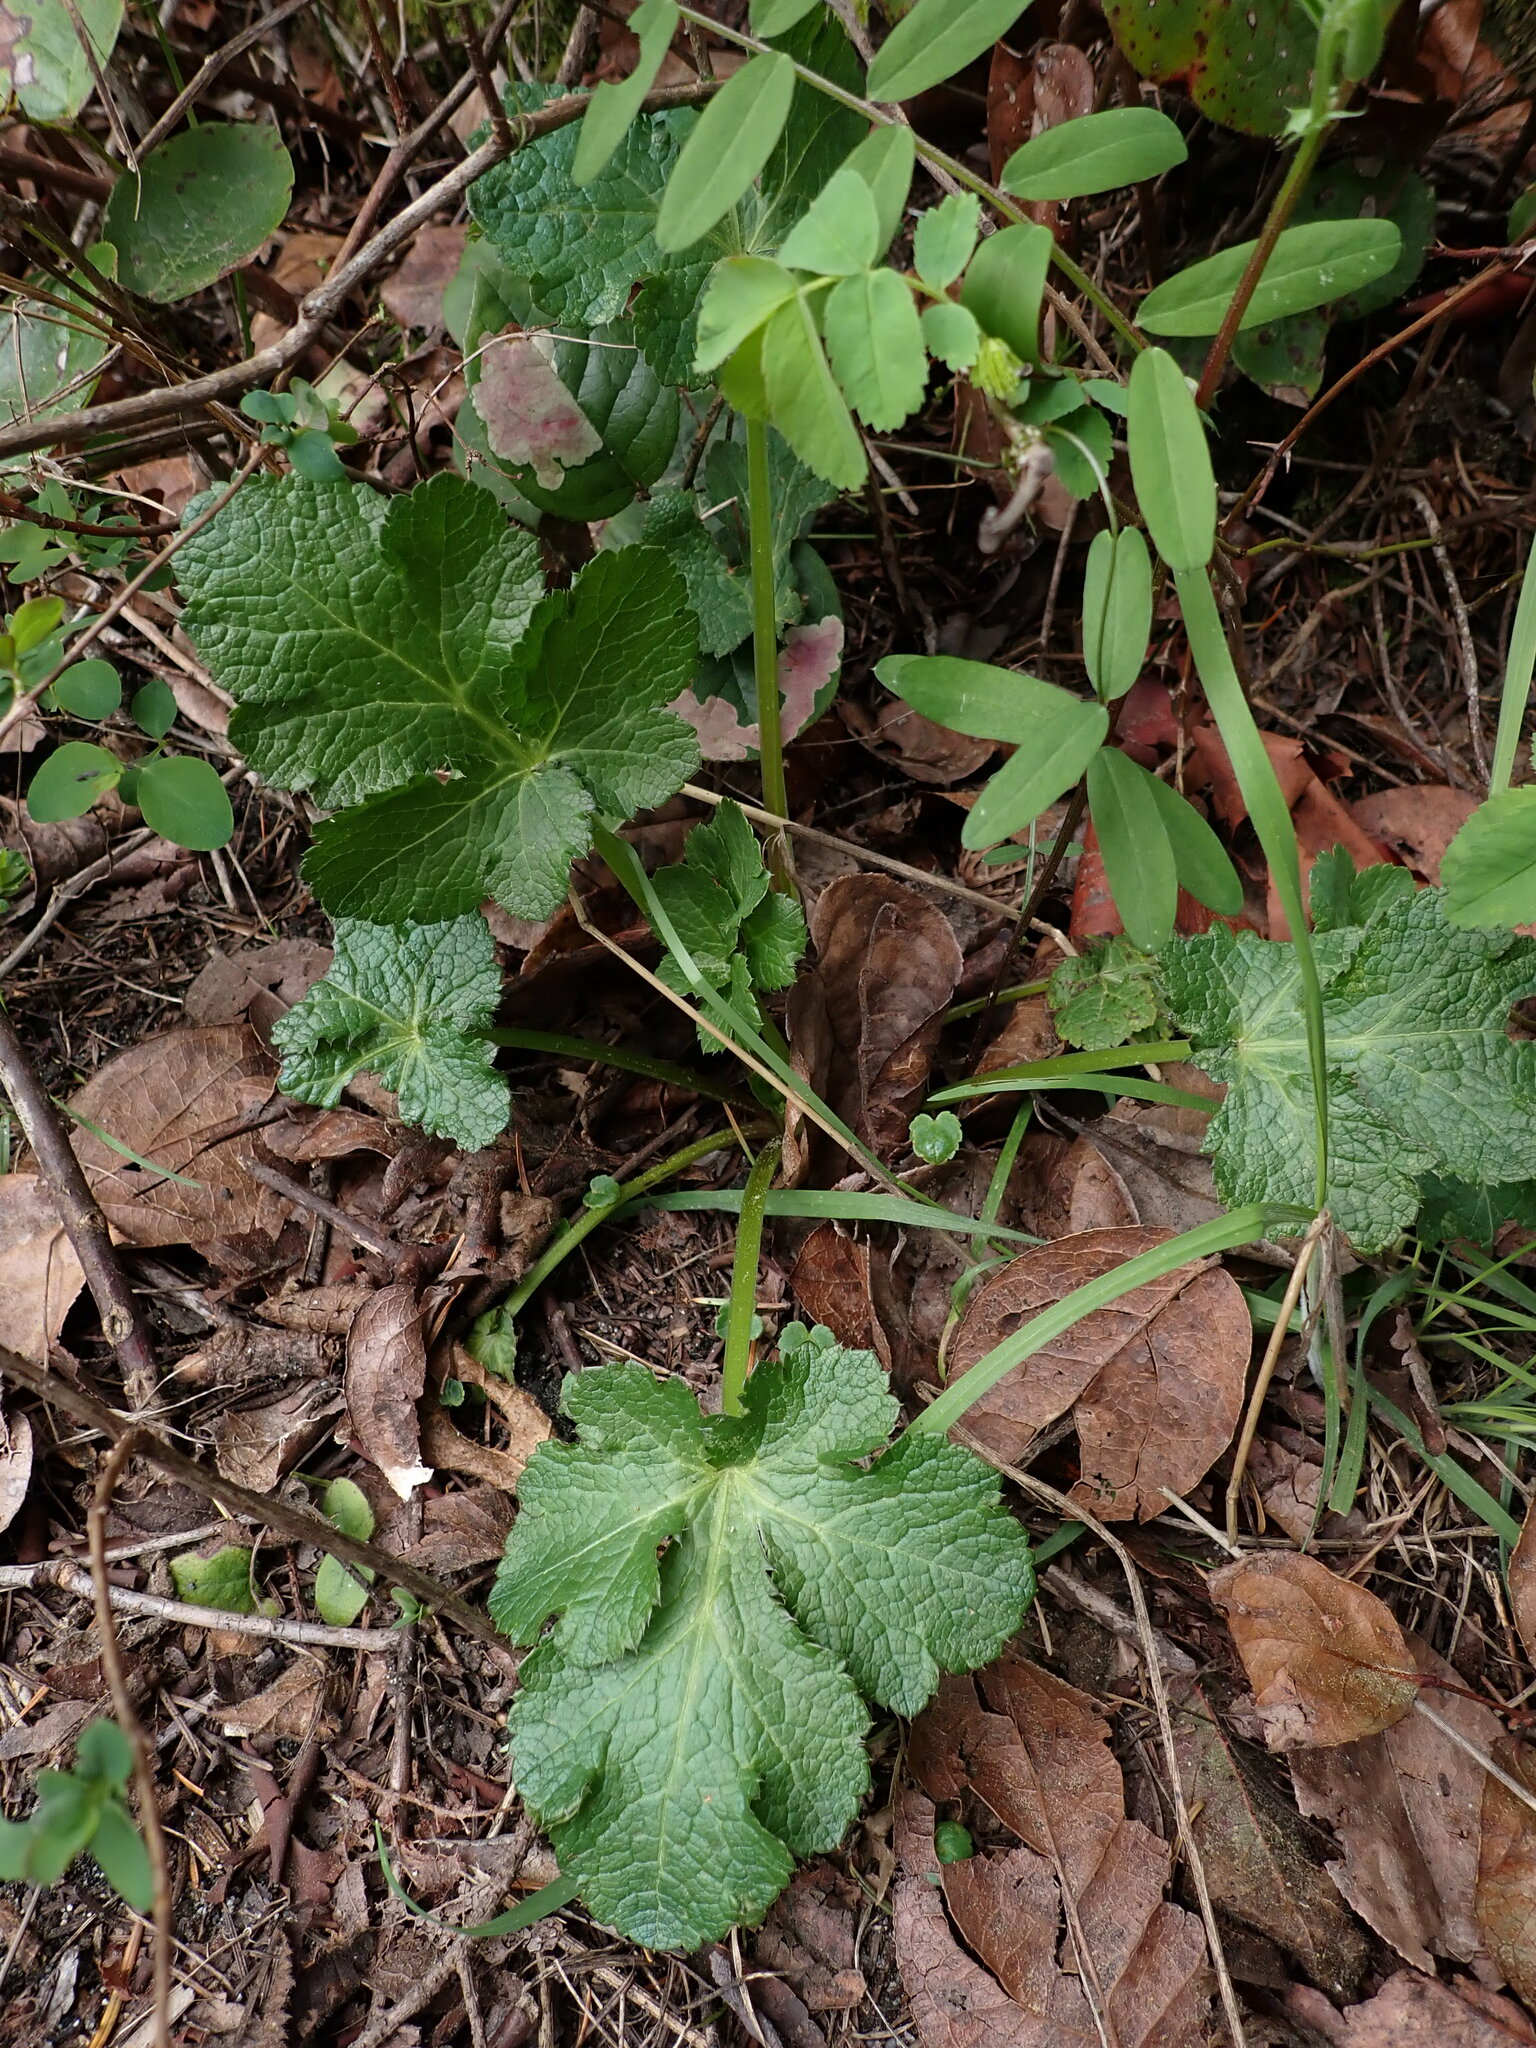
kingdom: Plantae
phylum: Tracheophyta
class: Magnoliopsida
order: Apiales
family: Apiaceae
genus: Sanicula
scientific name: Sanicula crassicaulis
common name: Western snakeroot
